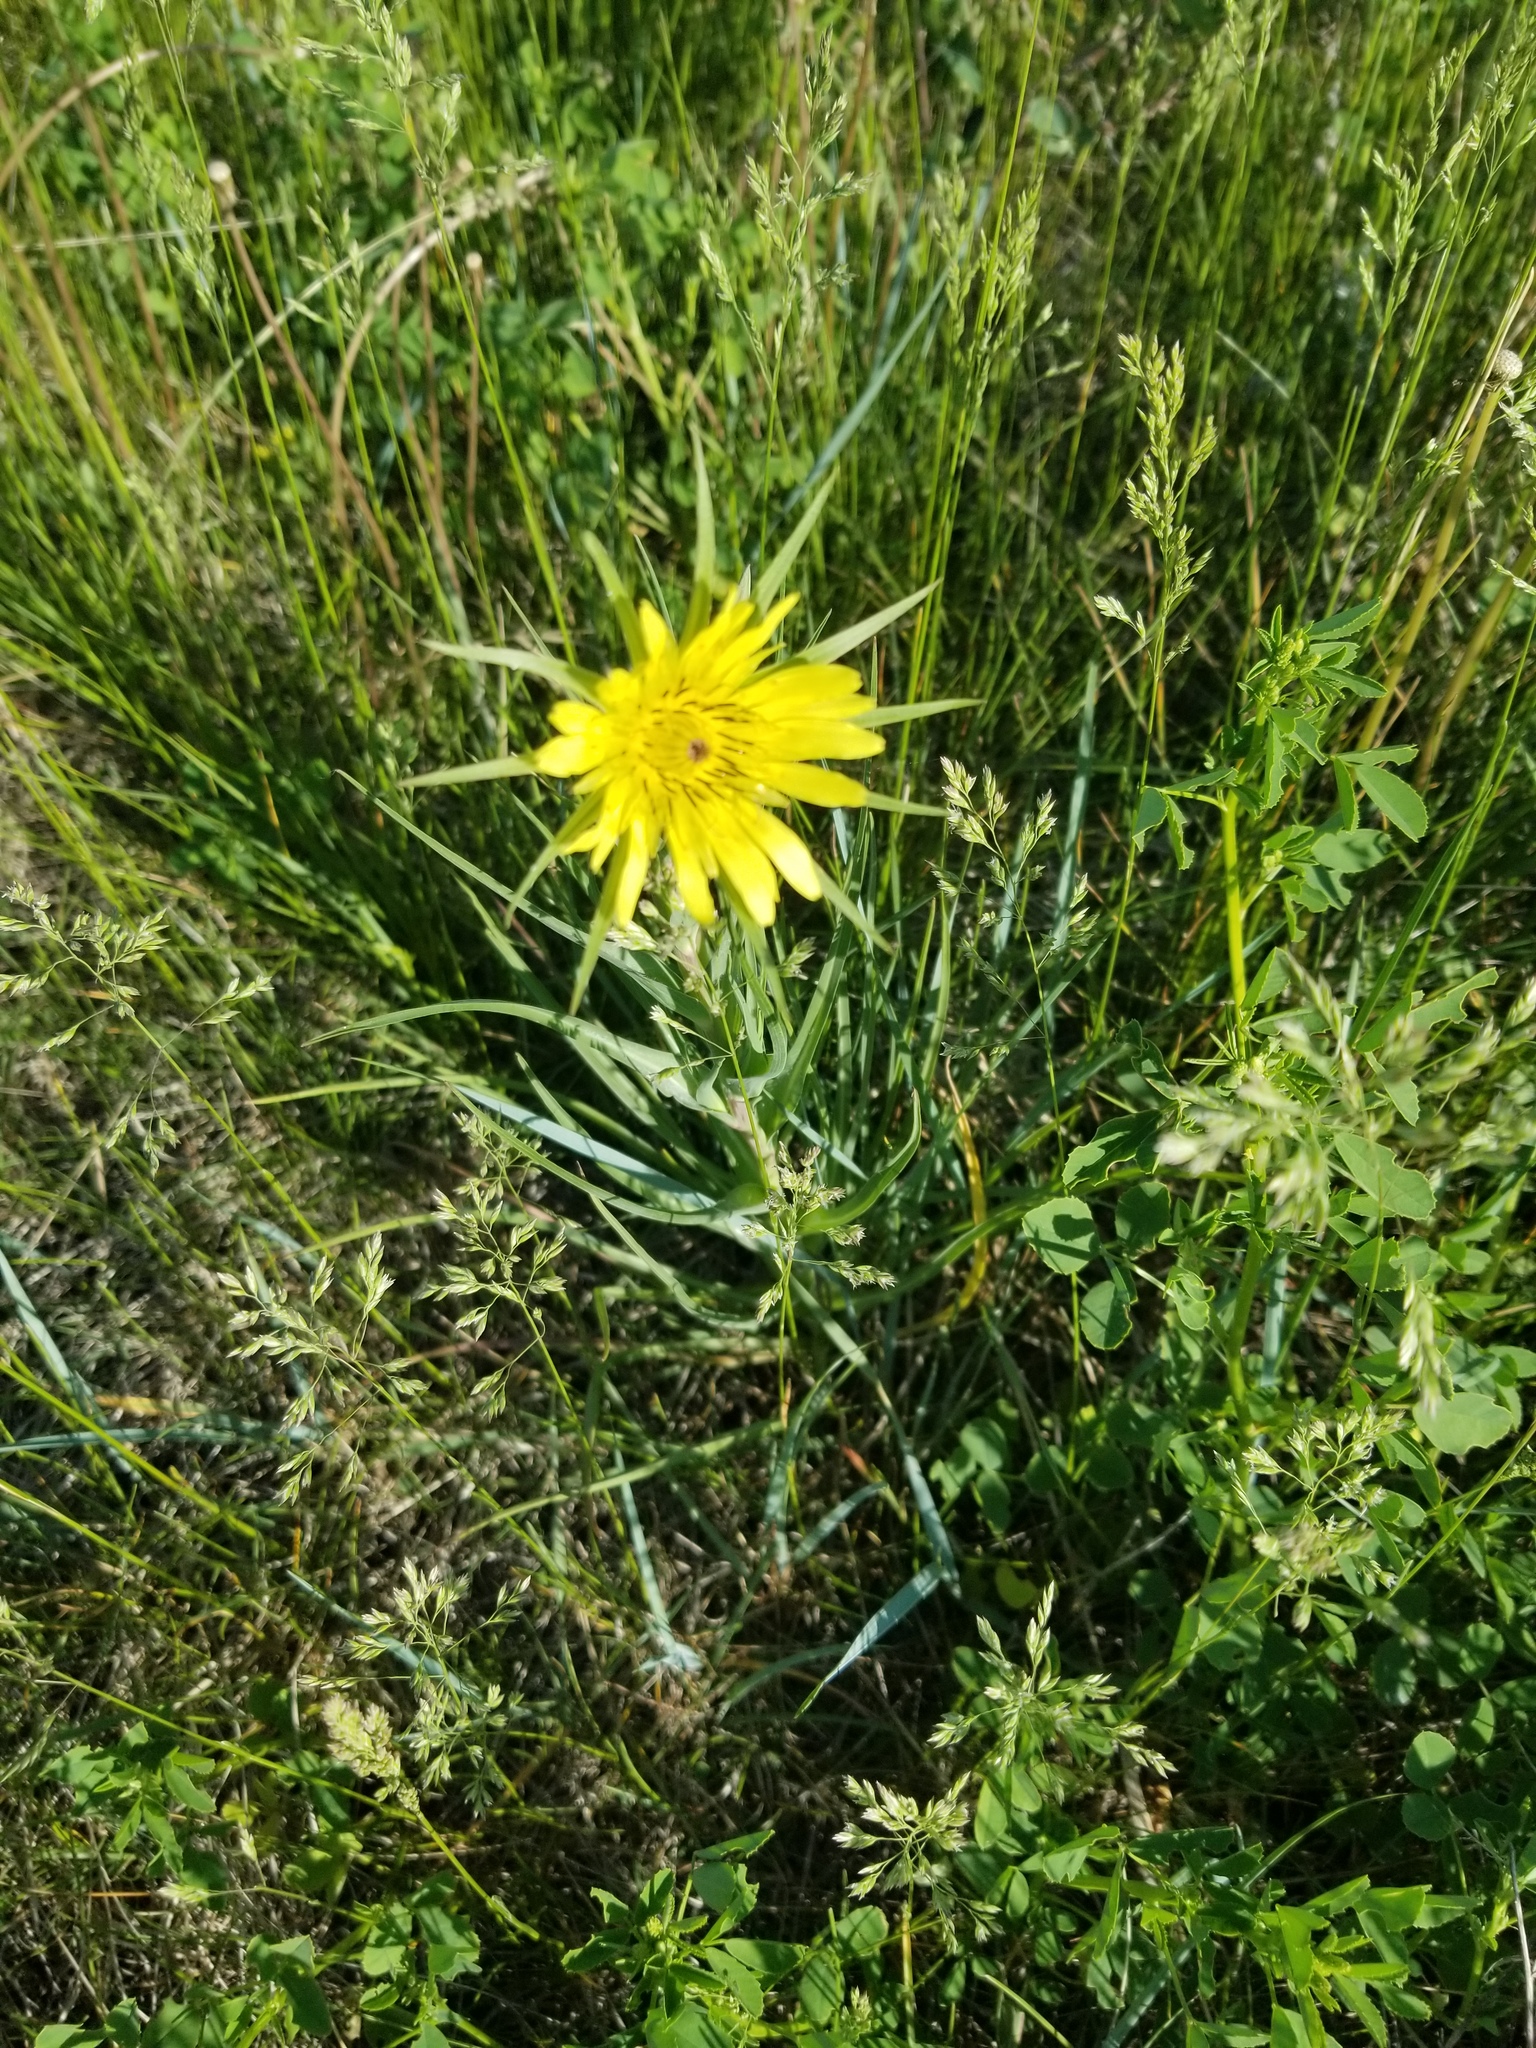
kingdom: Plantae
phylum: Tracheophyta
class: Magnoliopsida
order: Asterales
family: Asteraceae
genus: Tragopogon
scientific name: Tragopogon dubius
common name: Yellow salsify
